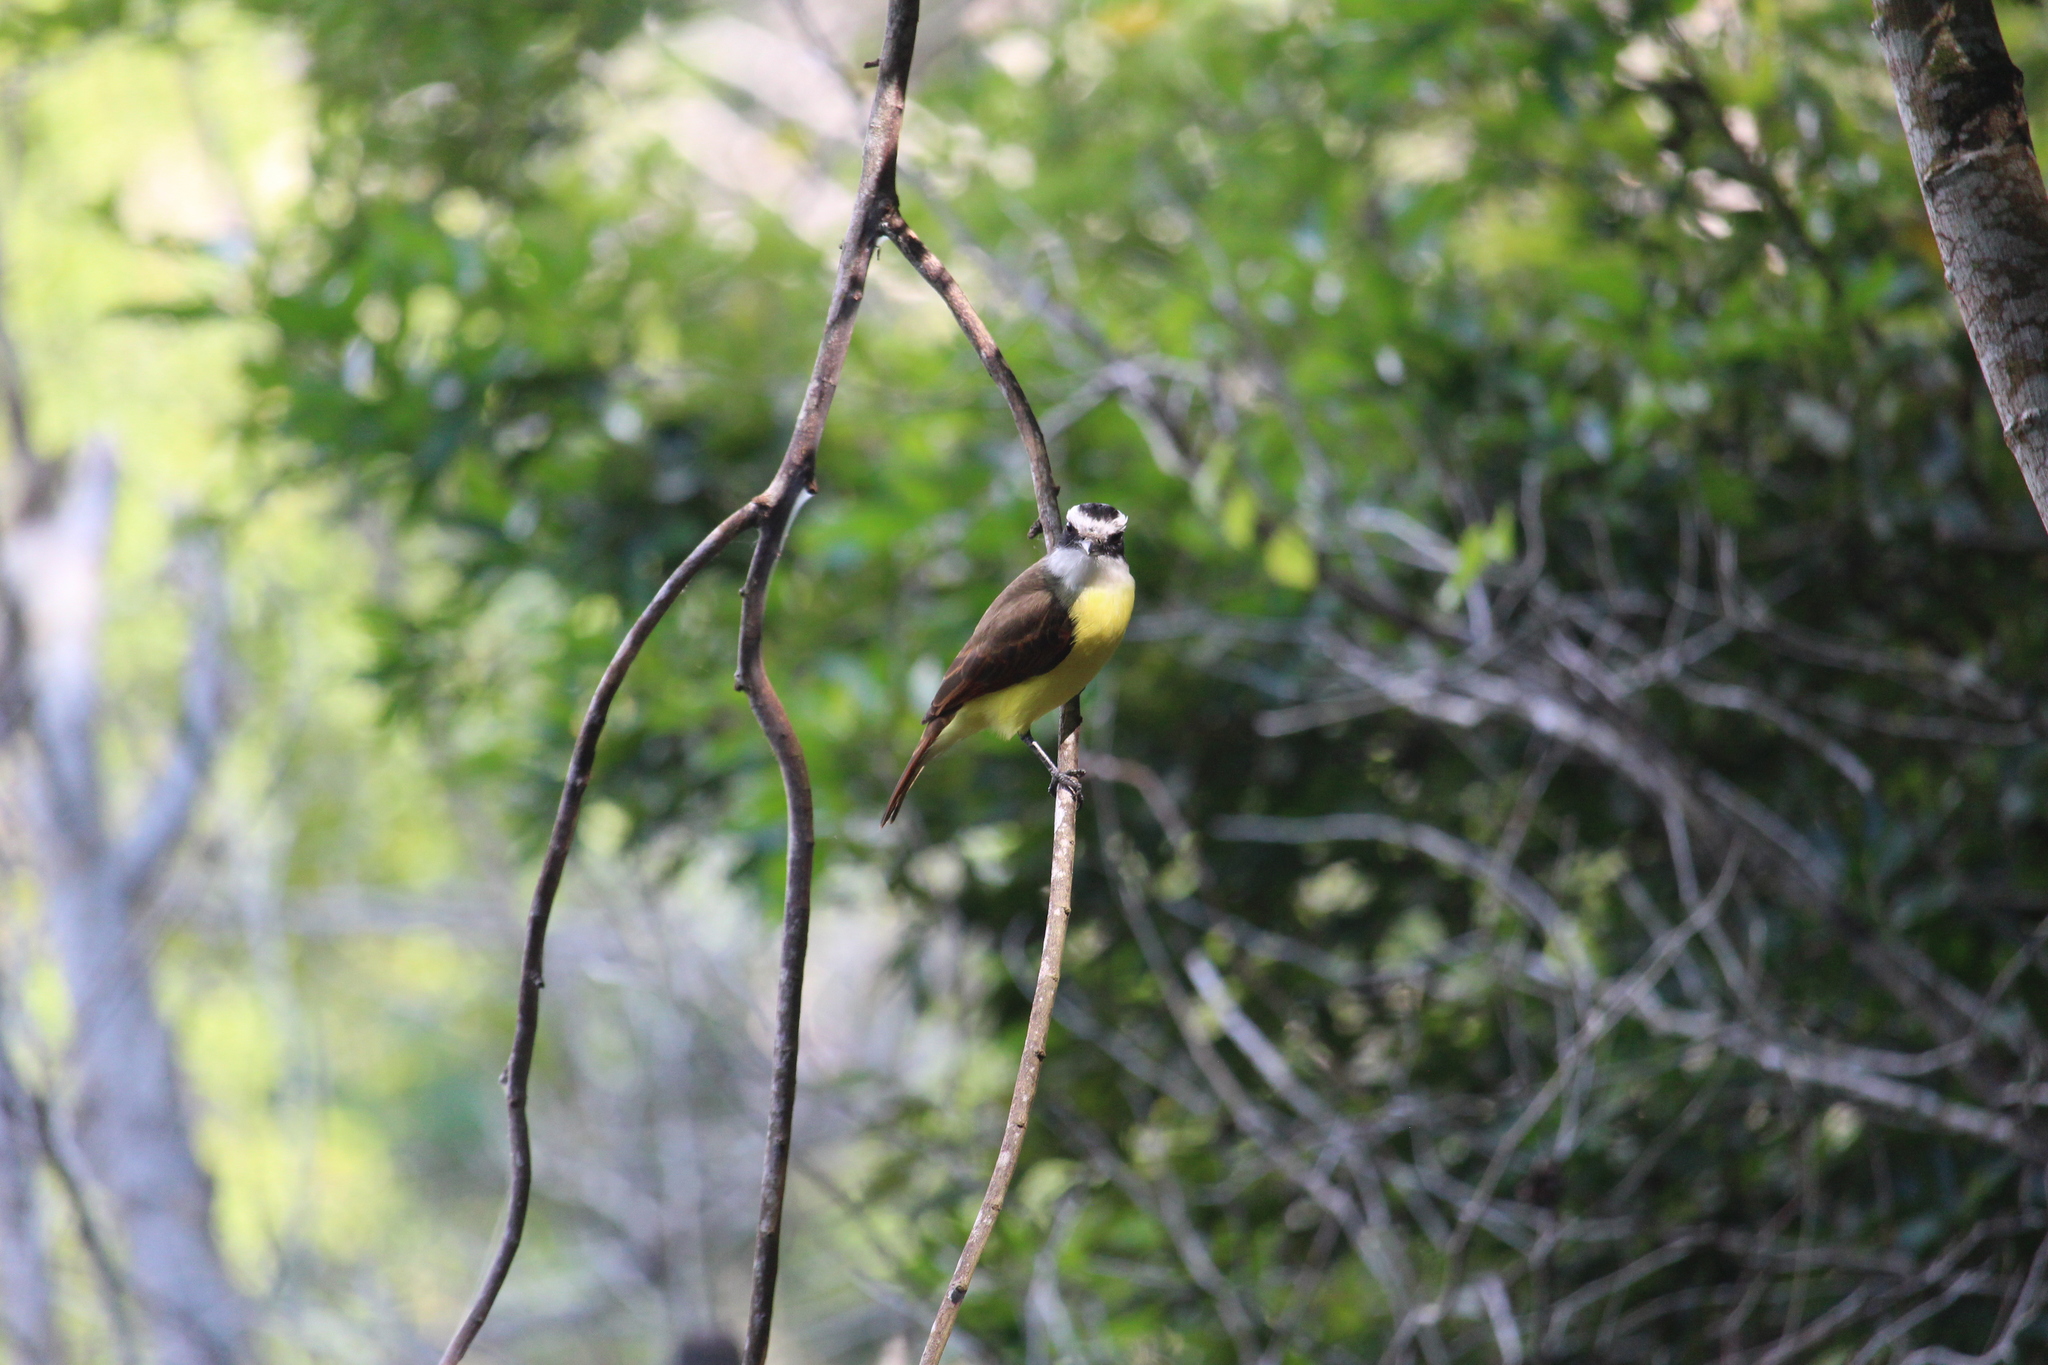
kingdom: Animalia
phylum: Chordata
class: Aves
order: Passeriformes
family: Tyrannidae
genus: Pitangus
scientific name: Pitangus sulphuratus
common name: Great kiskadee
